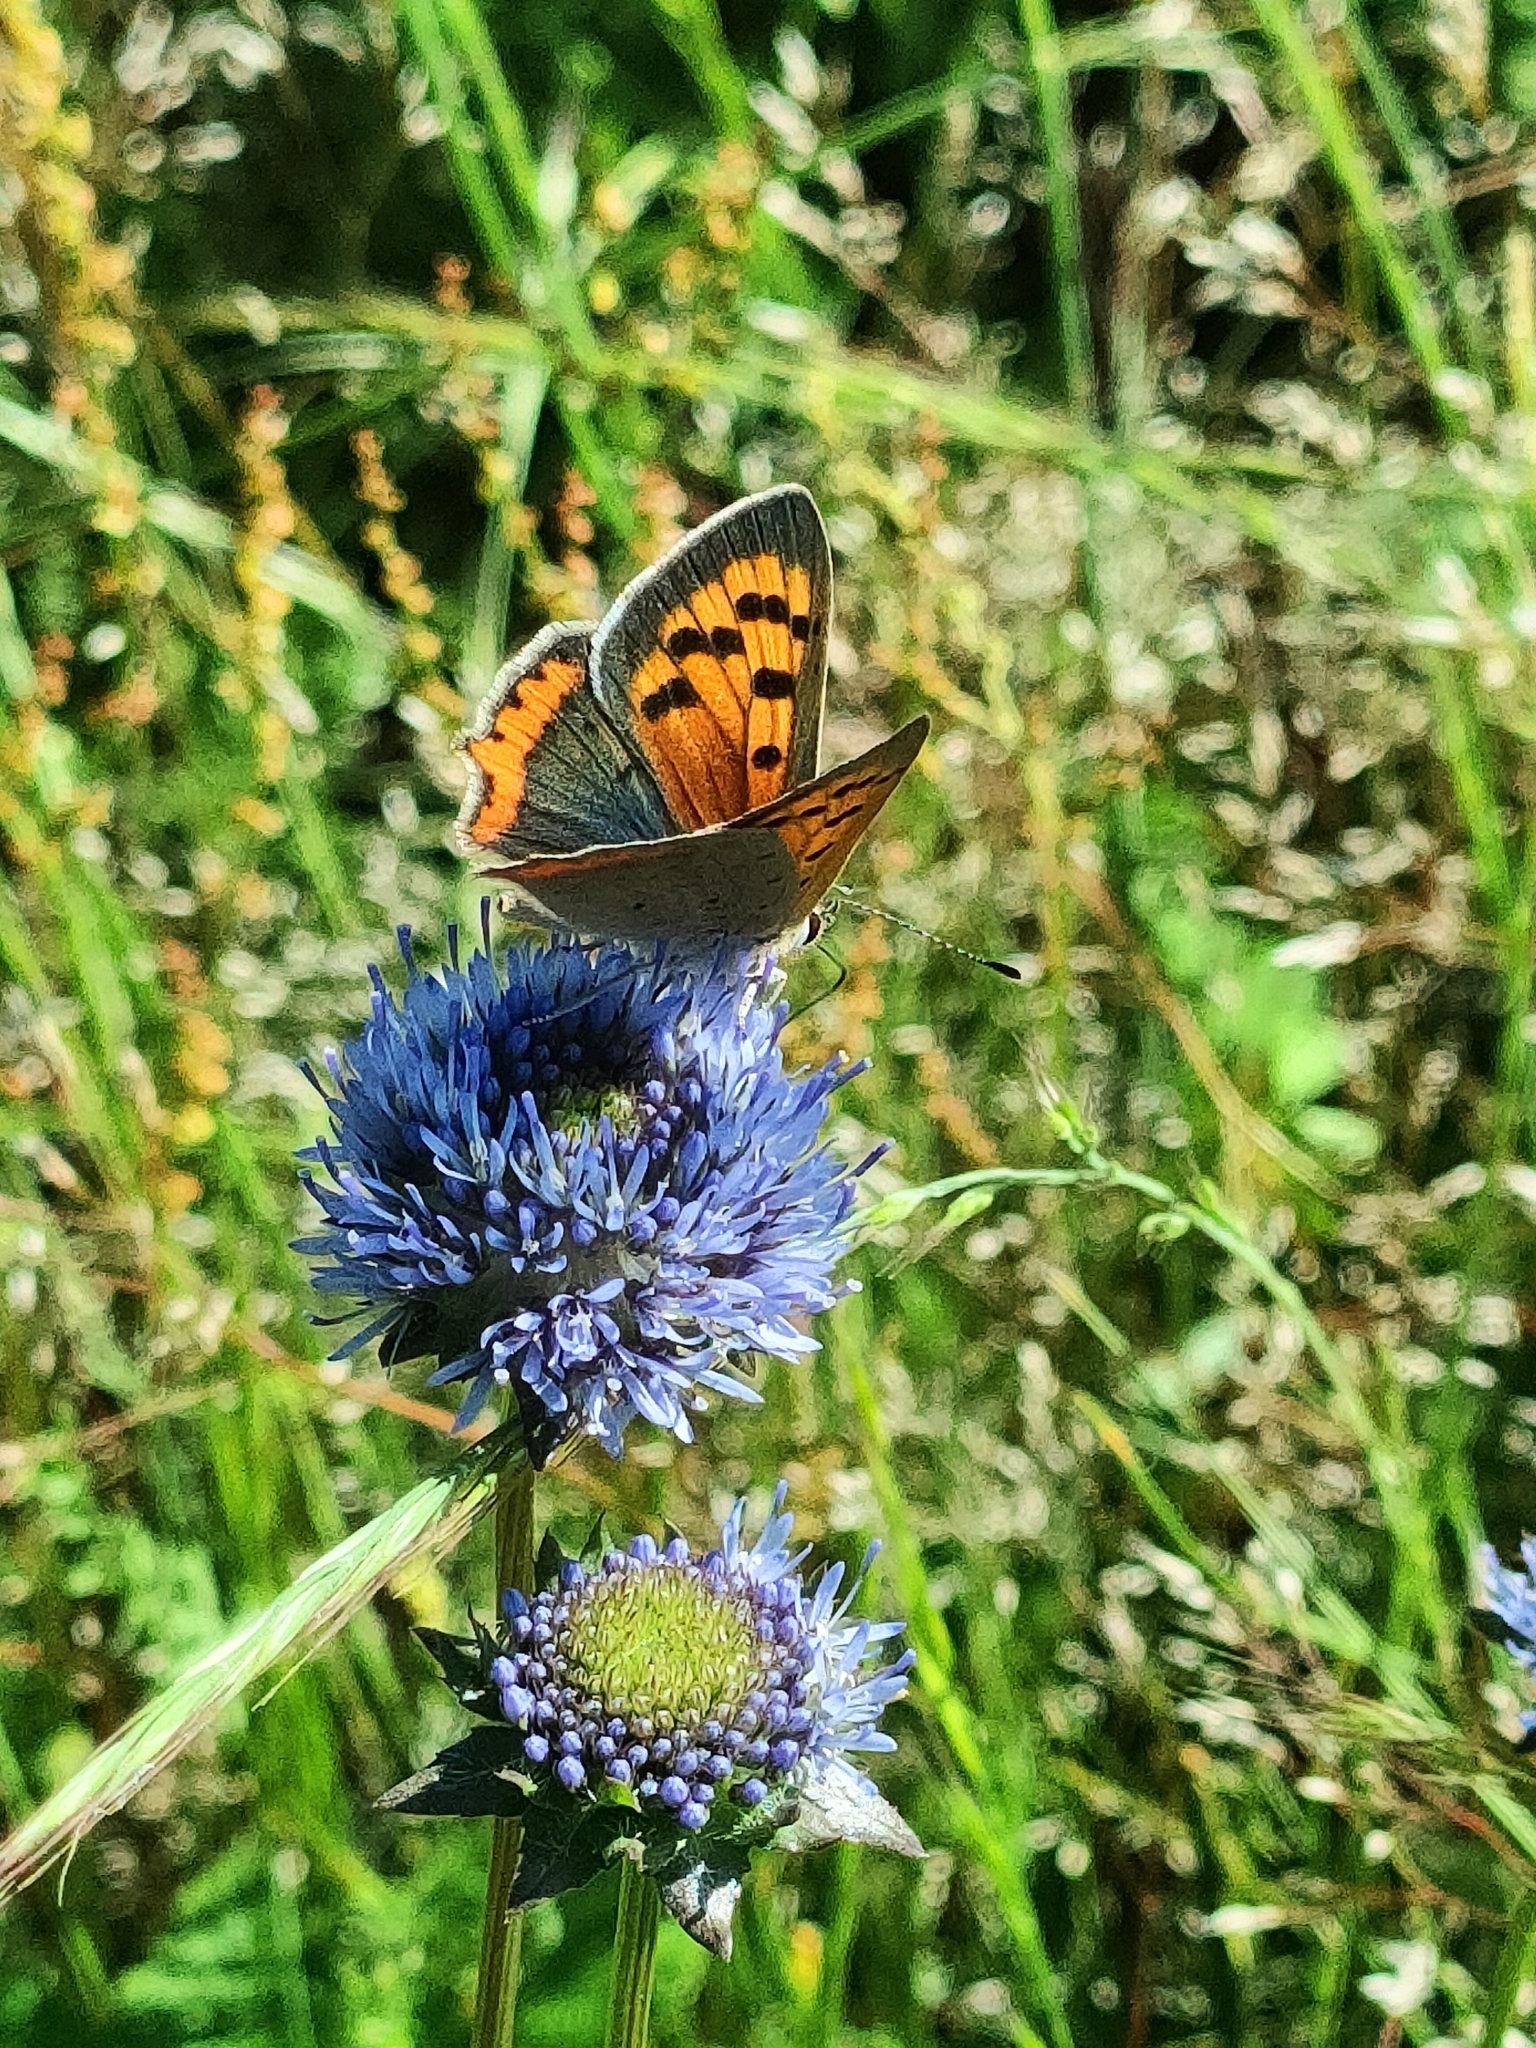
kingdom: Animalia
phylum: Arthropoda
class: Insecta
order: Lepidoptera
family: Lycaenidae
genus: Lycaena
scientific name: Lycaena phlaeas
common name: Small copper
